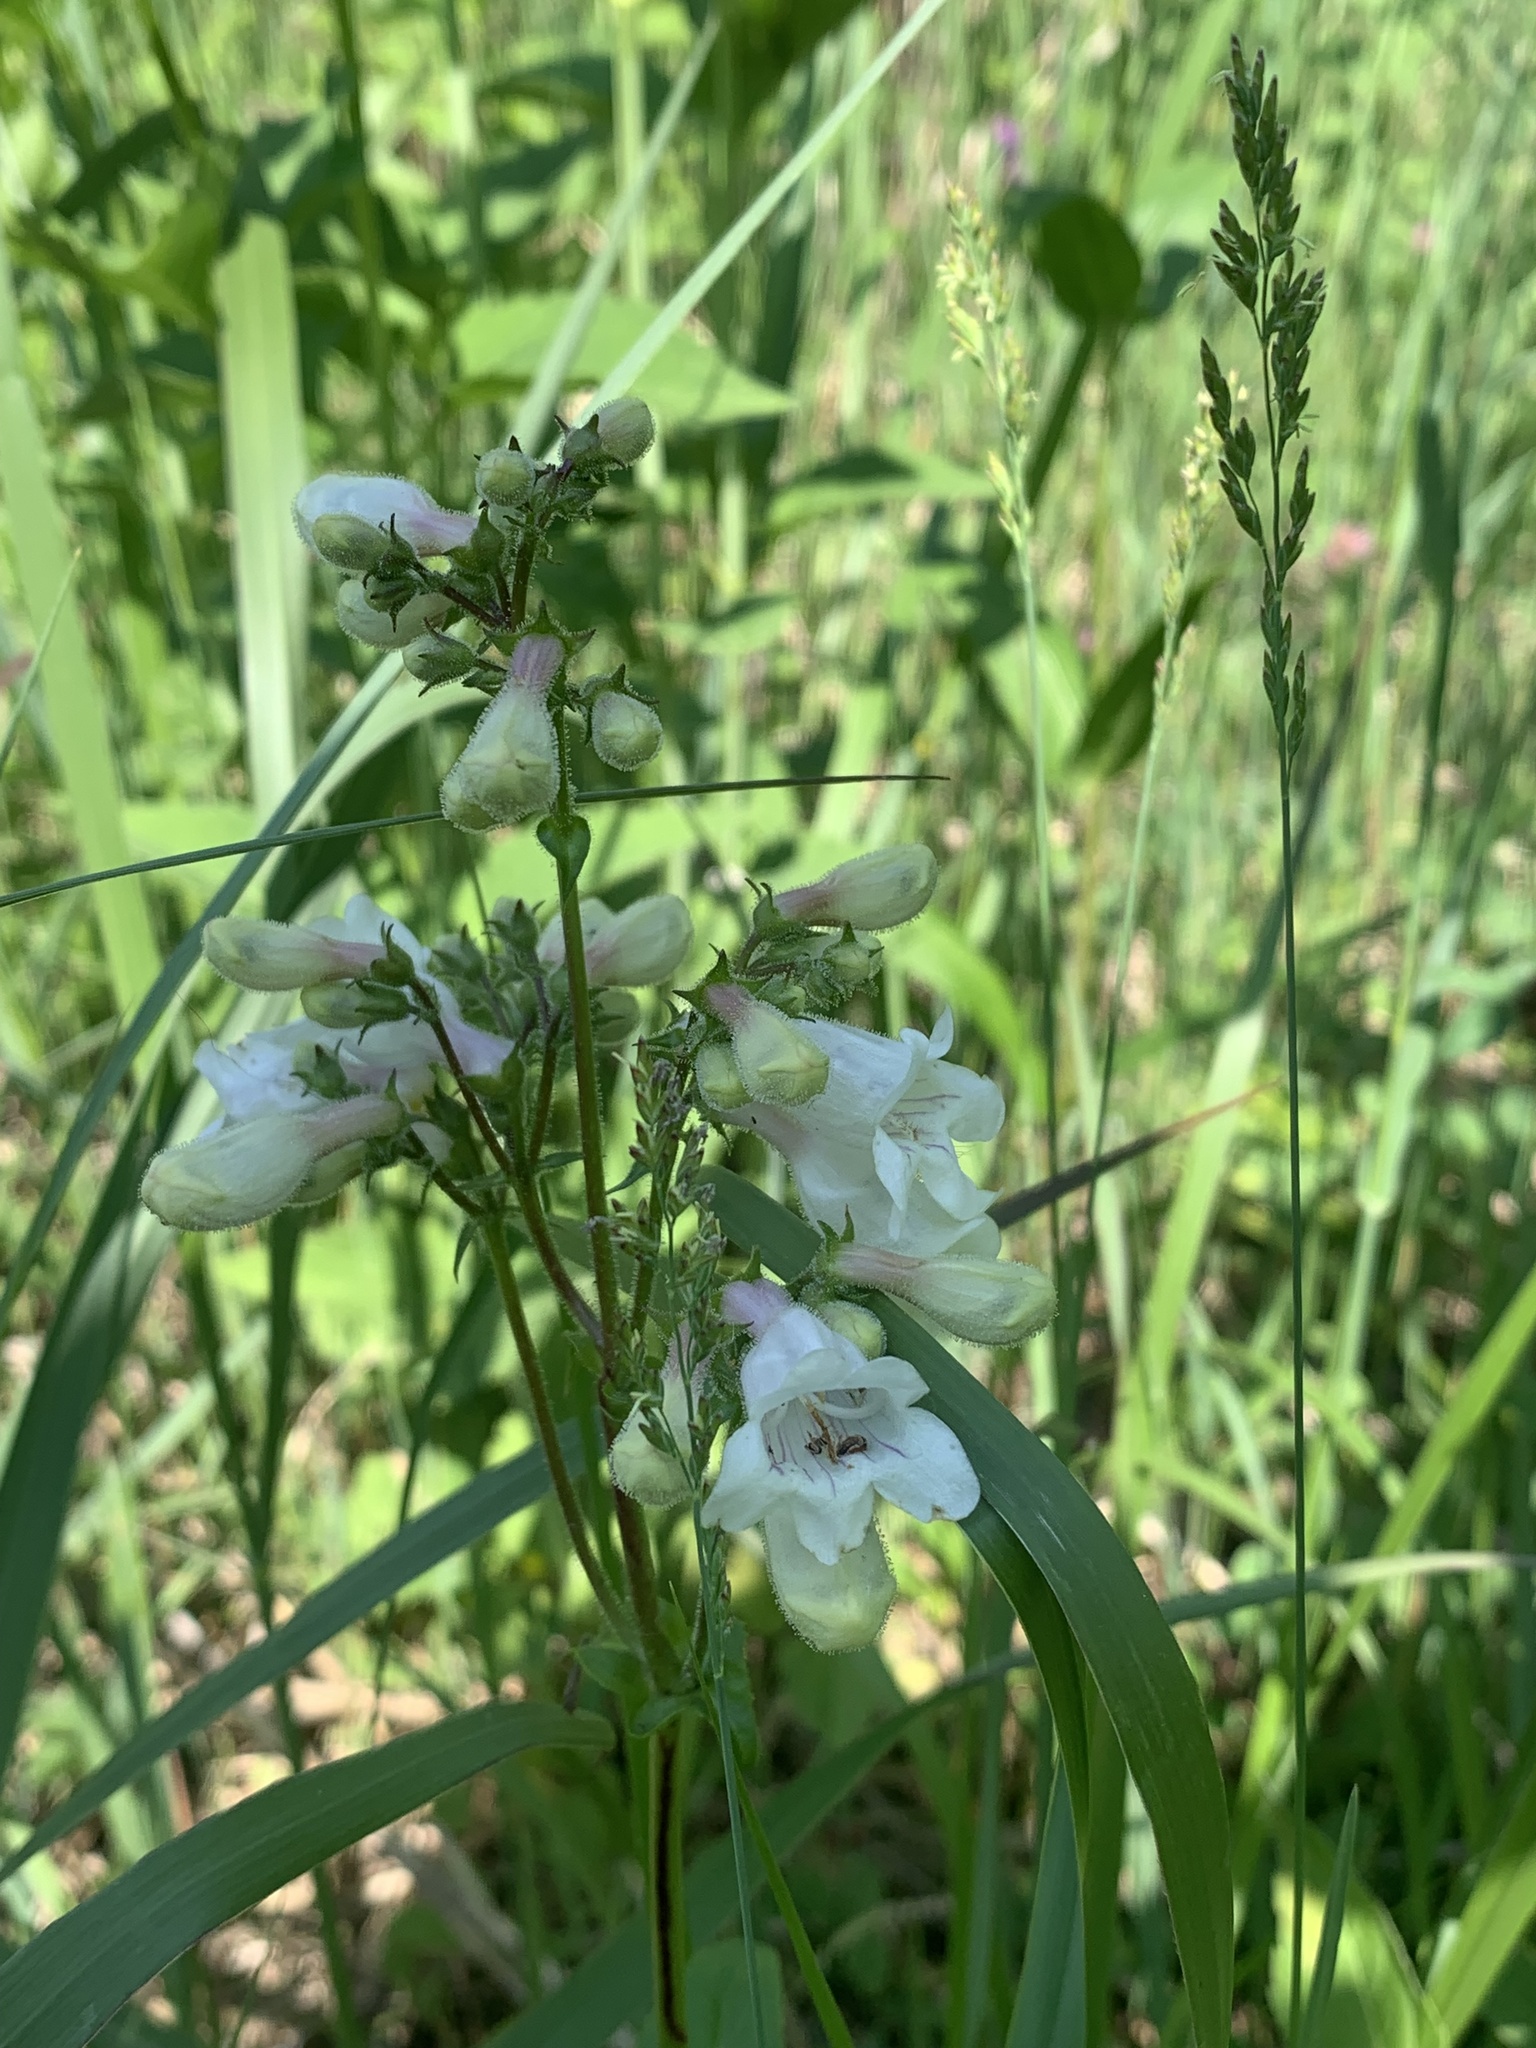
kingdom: Plantae
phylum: Tracheophyta
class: Magnoliopsida
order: Lamiales
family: Plantaginaceae
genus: Penstemon
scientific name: Penstemon digitalis
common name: Foxglove beardtongue
